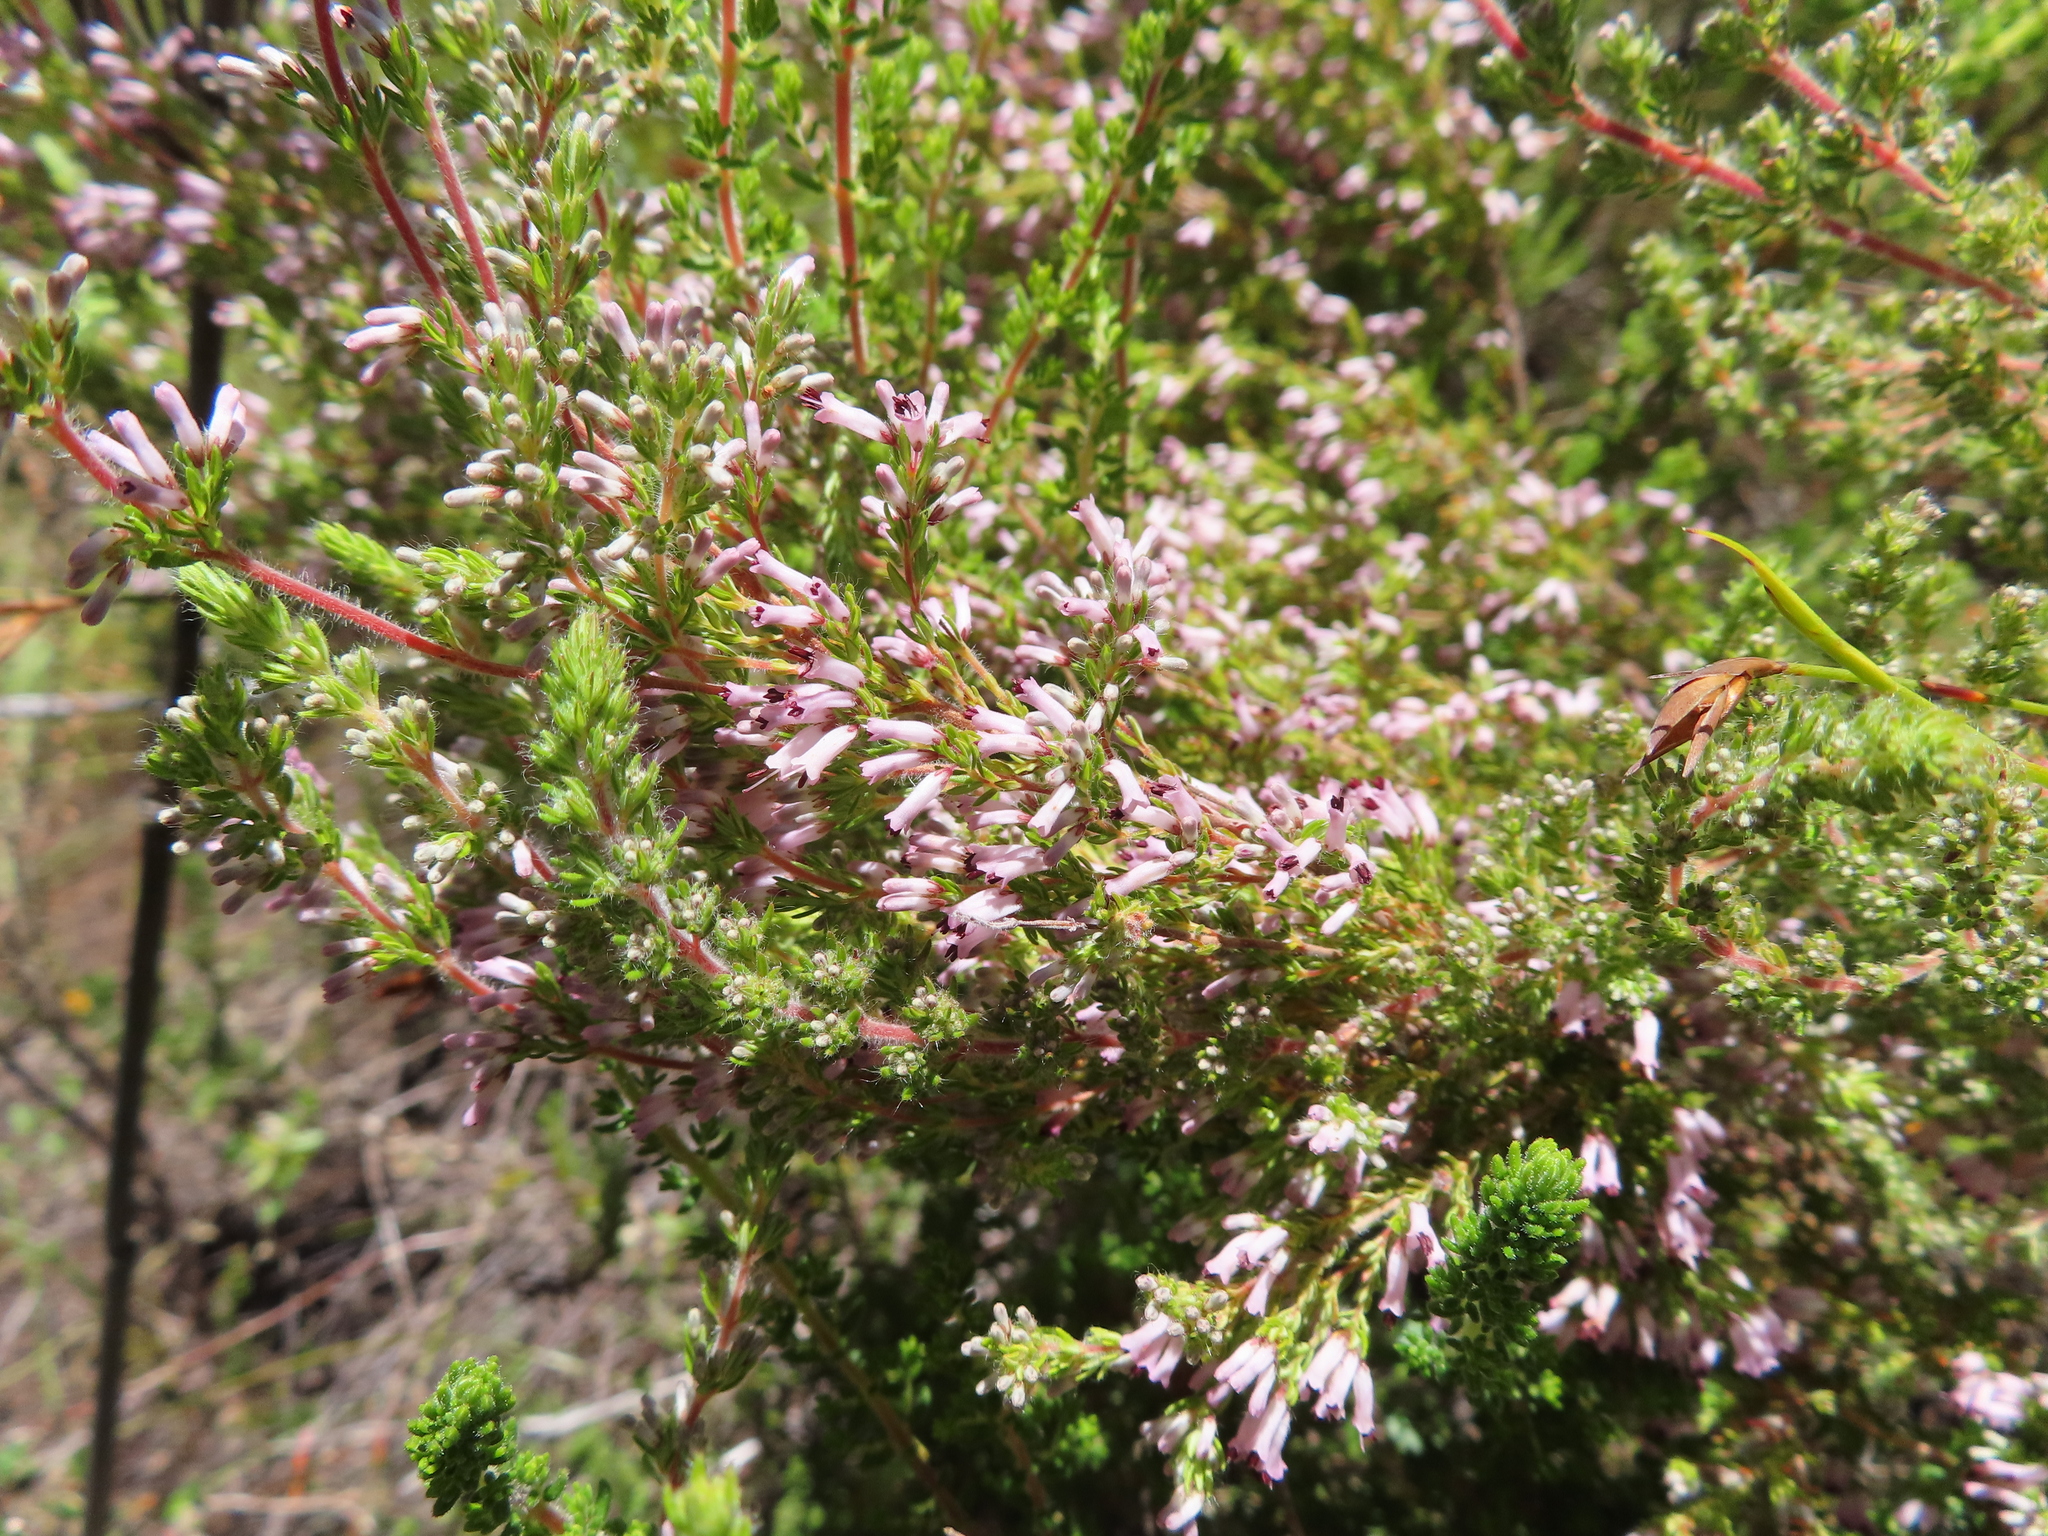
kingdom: Plantae
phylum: Tracheophyta
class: Magnoliopsida
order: Ericales
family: Ericaceae
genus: Erica
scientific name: Erica longimontana
